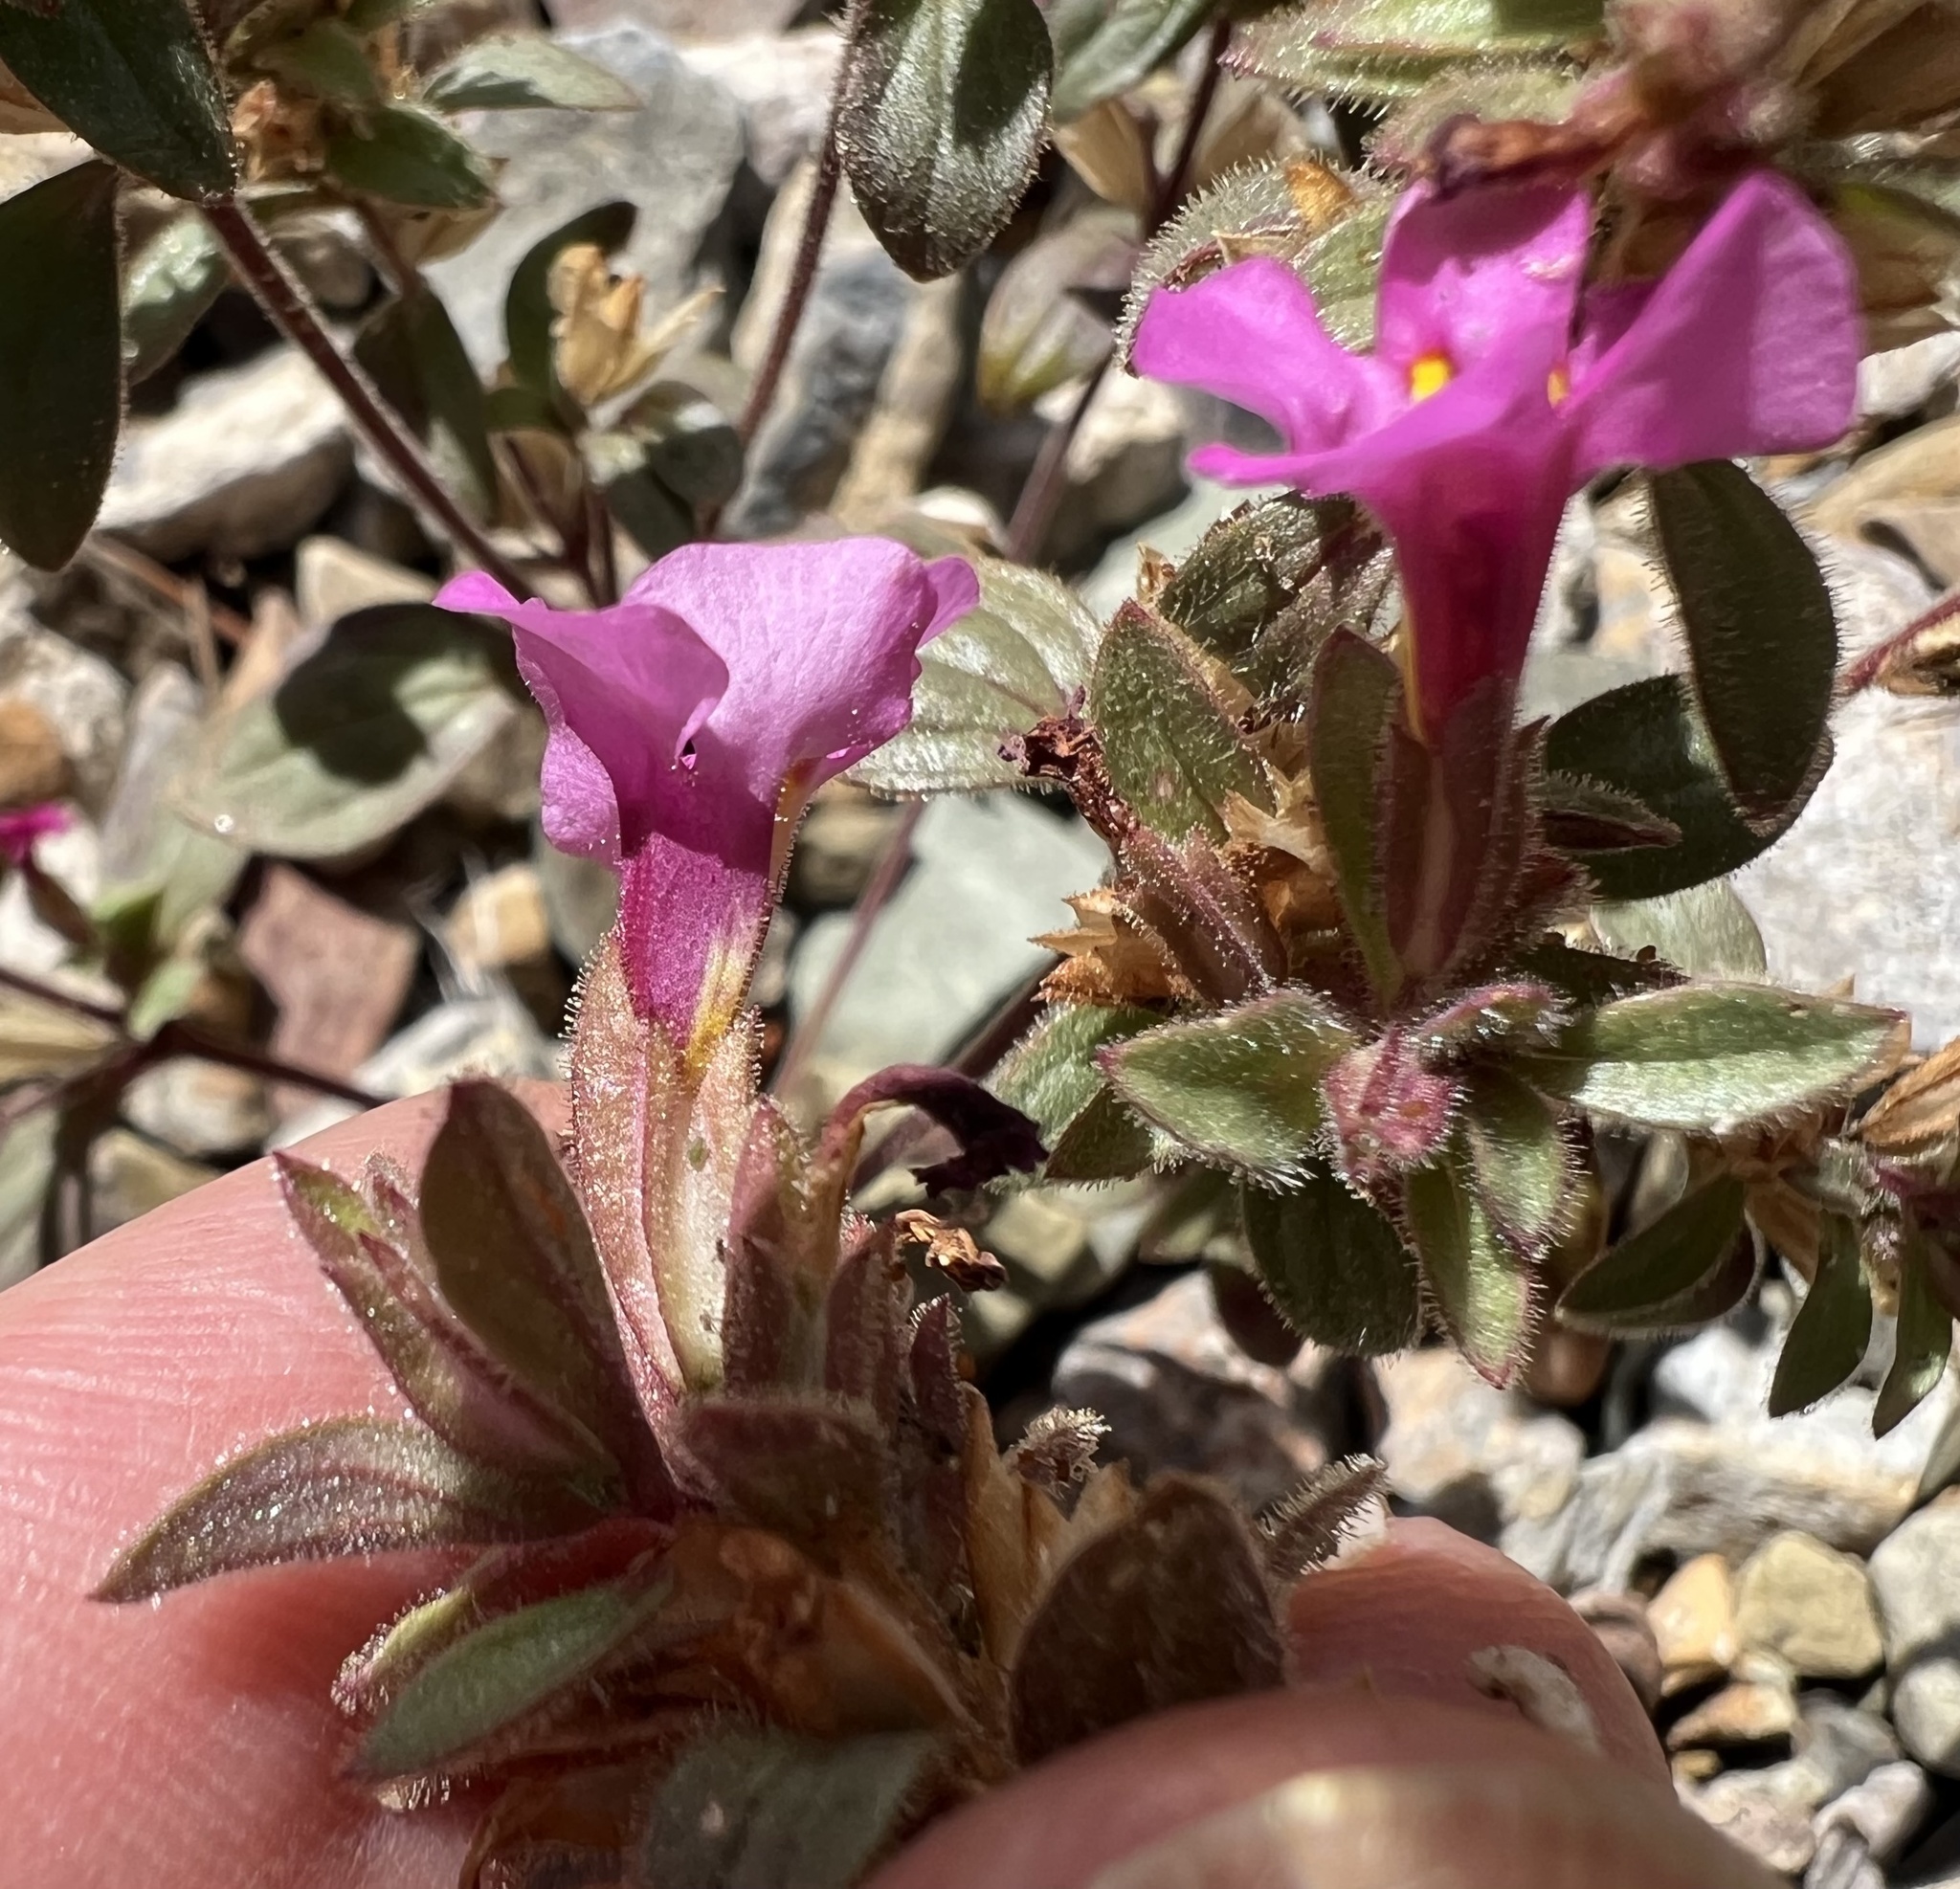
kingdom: Plantae
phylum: Tracheophyta
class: Magnoliopsida
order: Lamiales
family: Phrymaceae
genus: Diplacus
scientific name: Diplacus parryi
